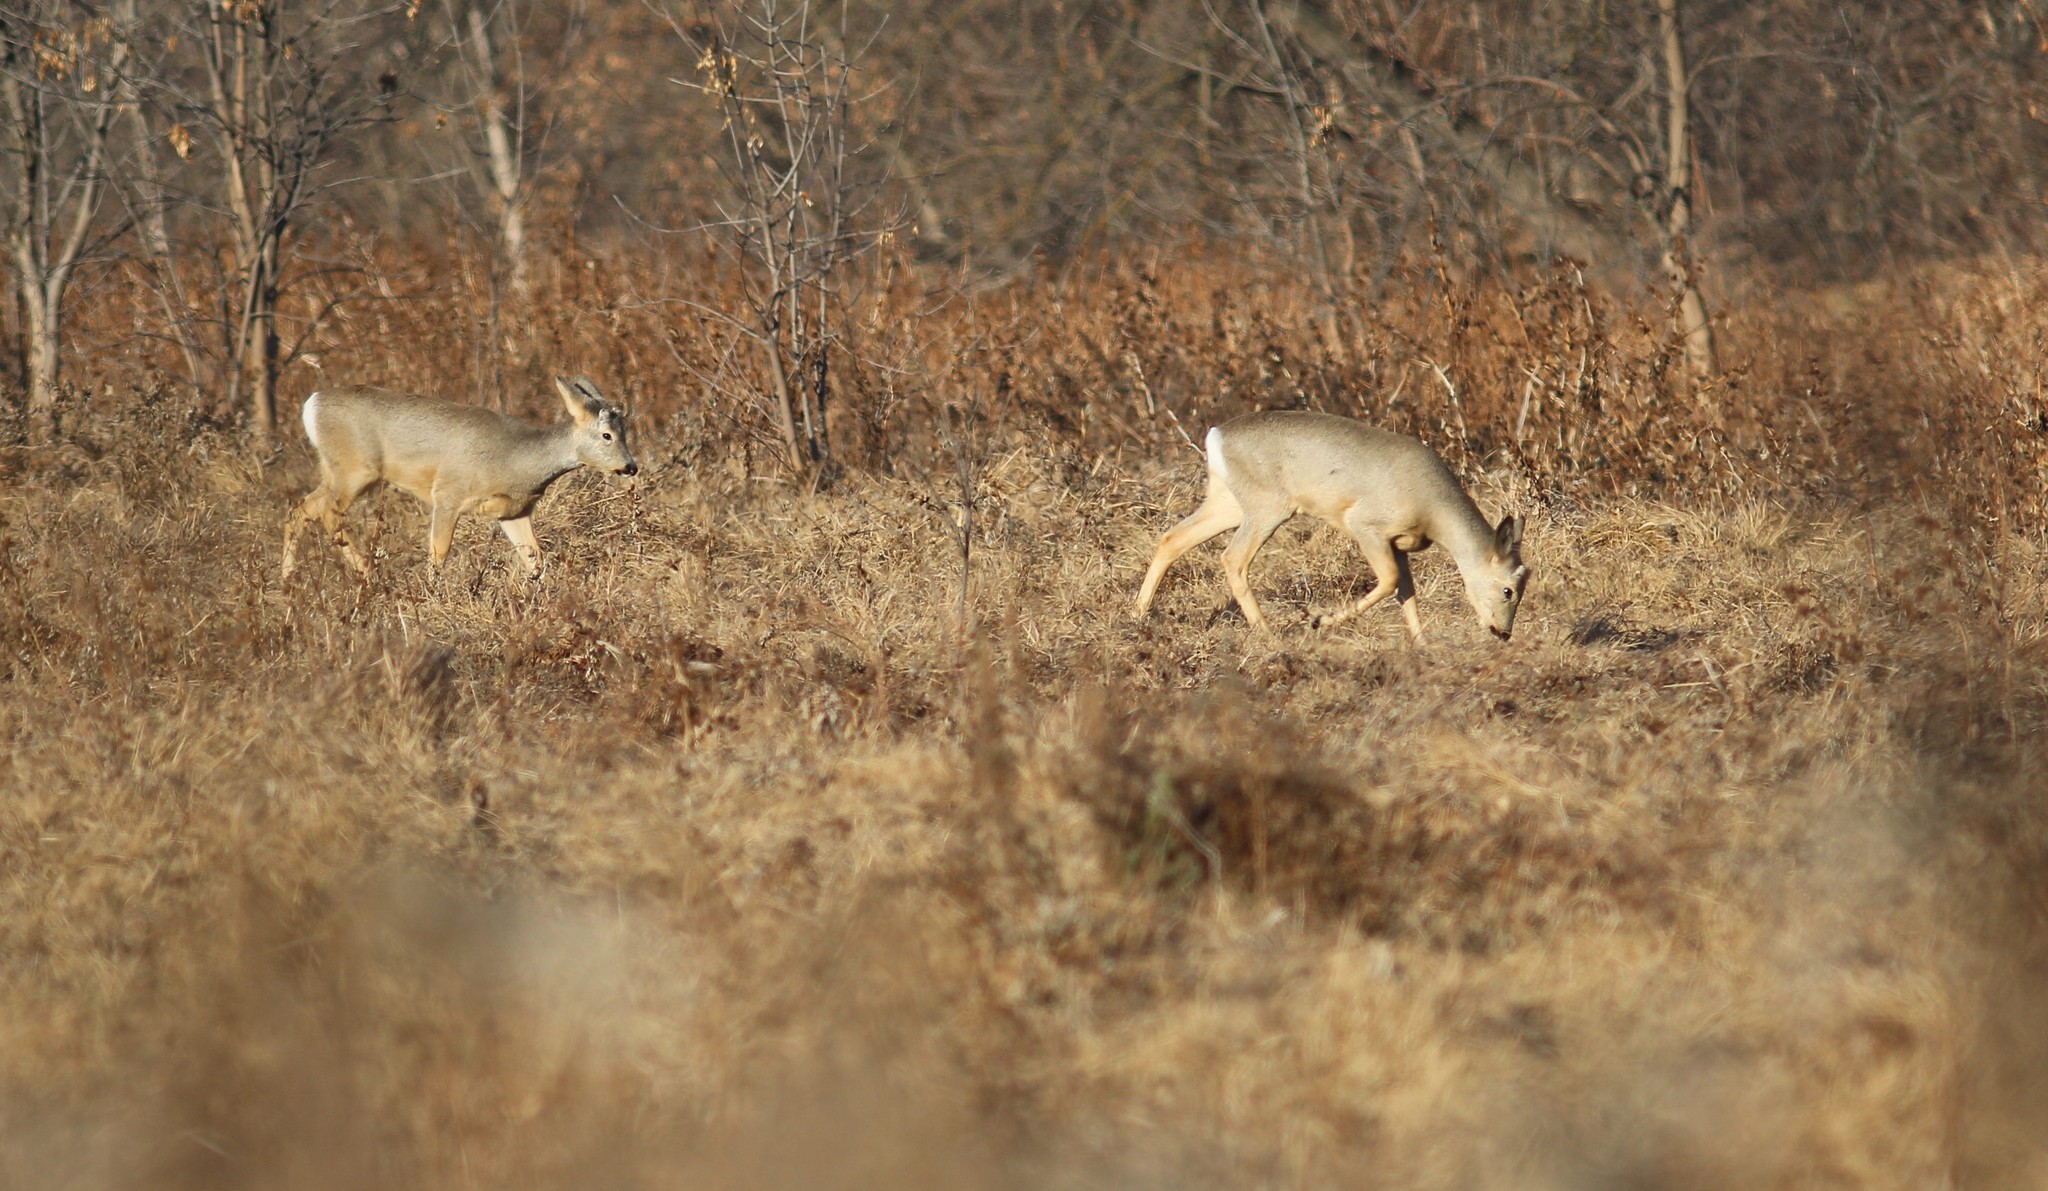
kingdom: Animalia
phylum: Chordata
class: Mammalia
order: Artiodactyla
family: Cervidae
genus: Capreolus
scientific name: Capreolus pygargus
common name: Siberian roe
